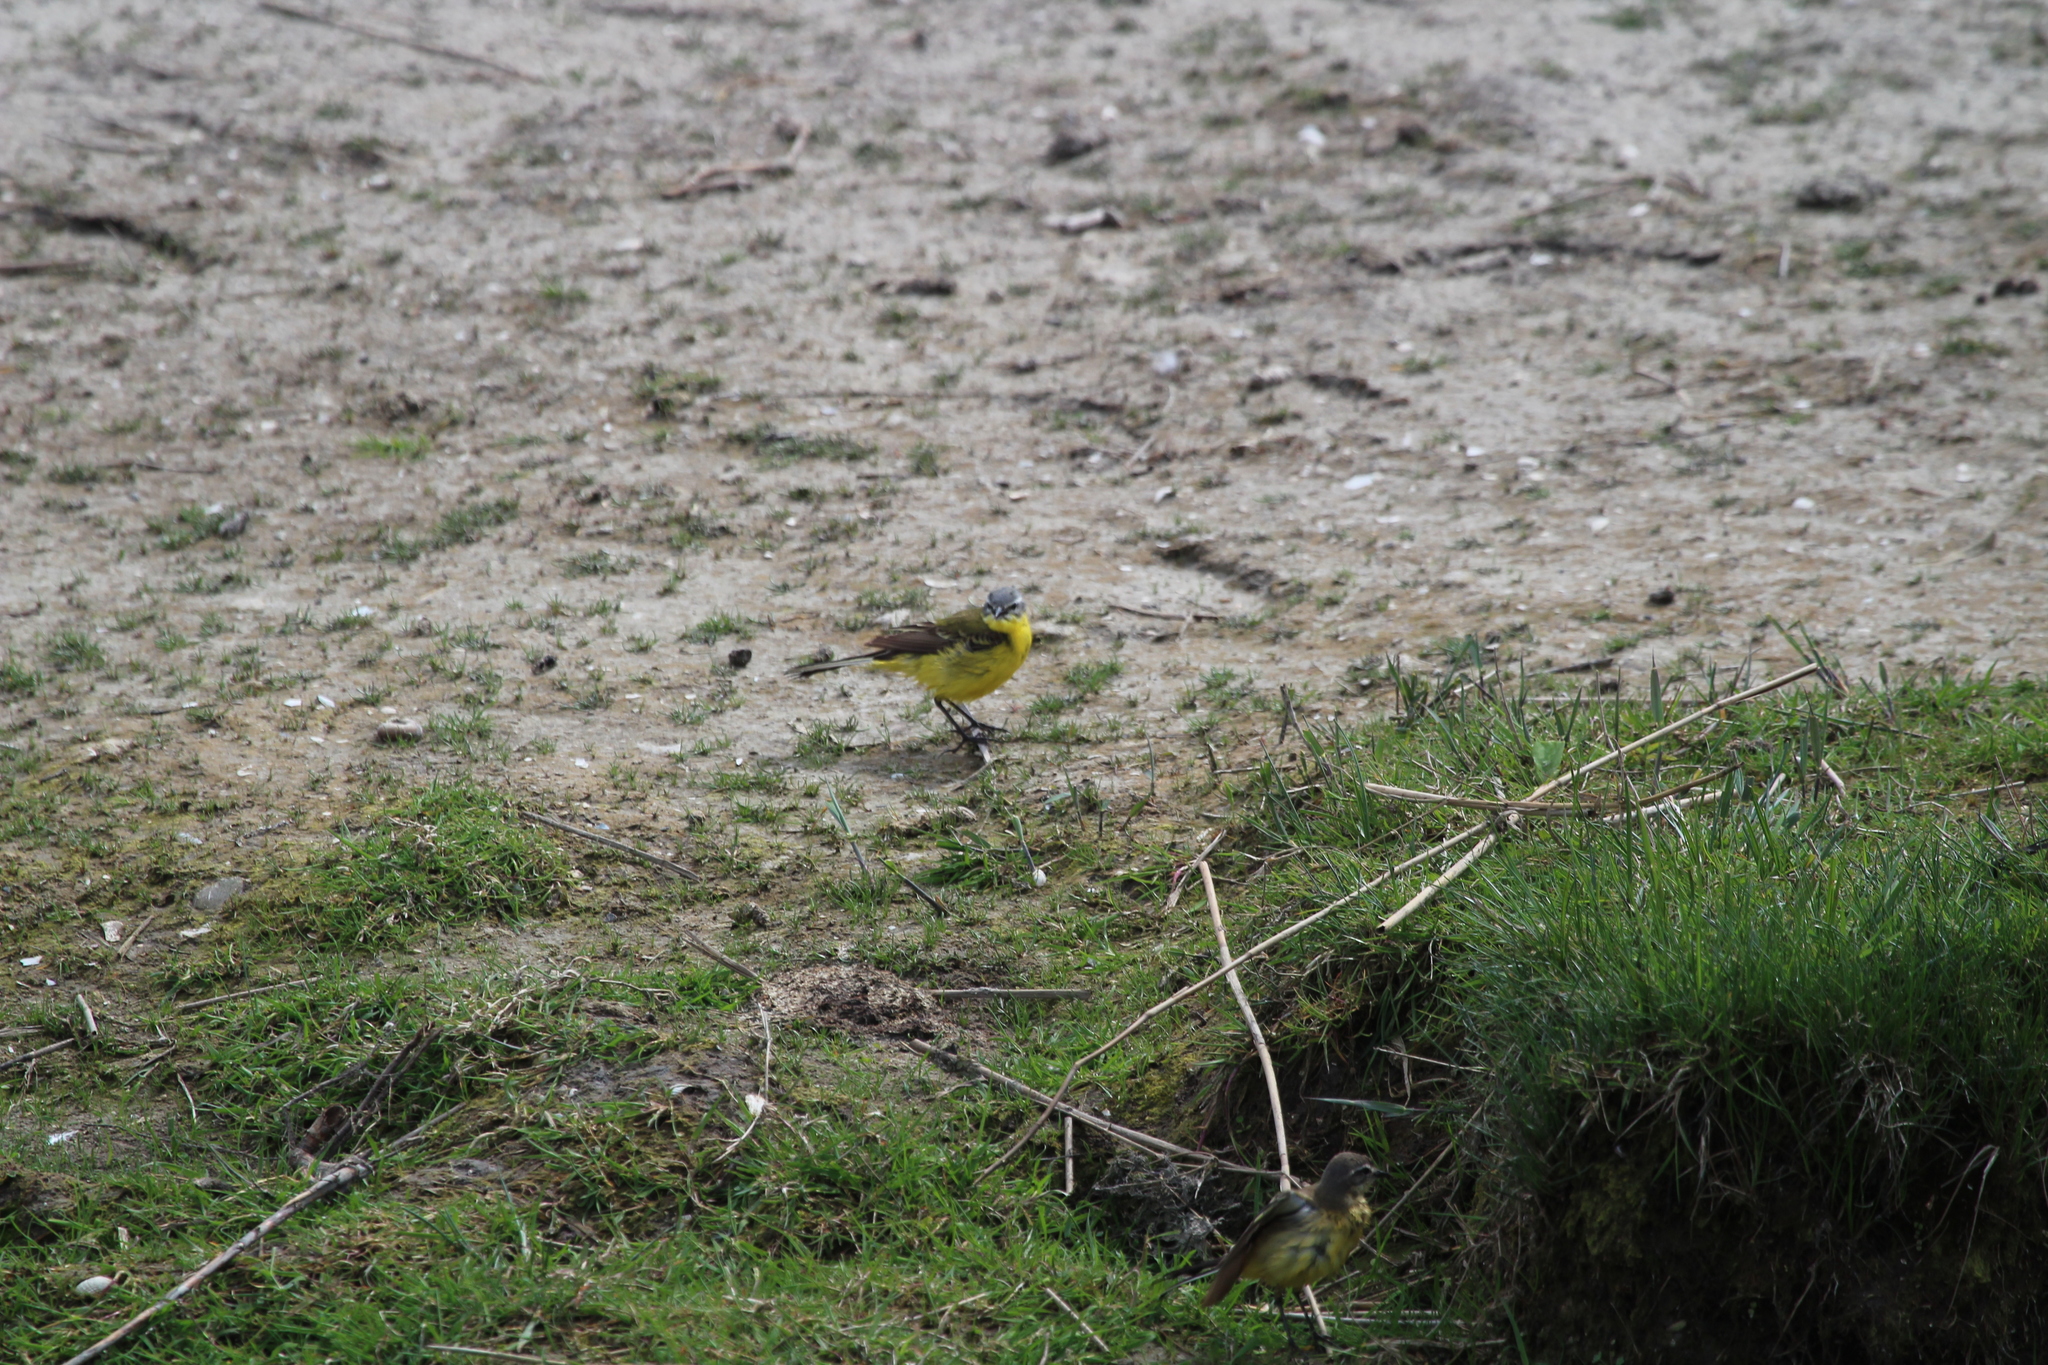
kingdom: Animalia
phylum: Chordata
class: Aves
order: Passeriformes
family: Motacillidae
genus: Motacilla
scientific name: Motacilla flava
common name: Western yellow wagtail
